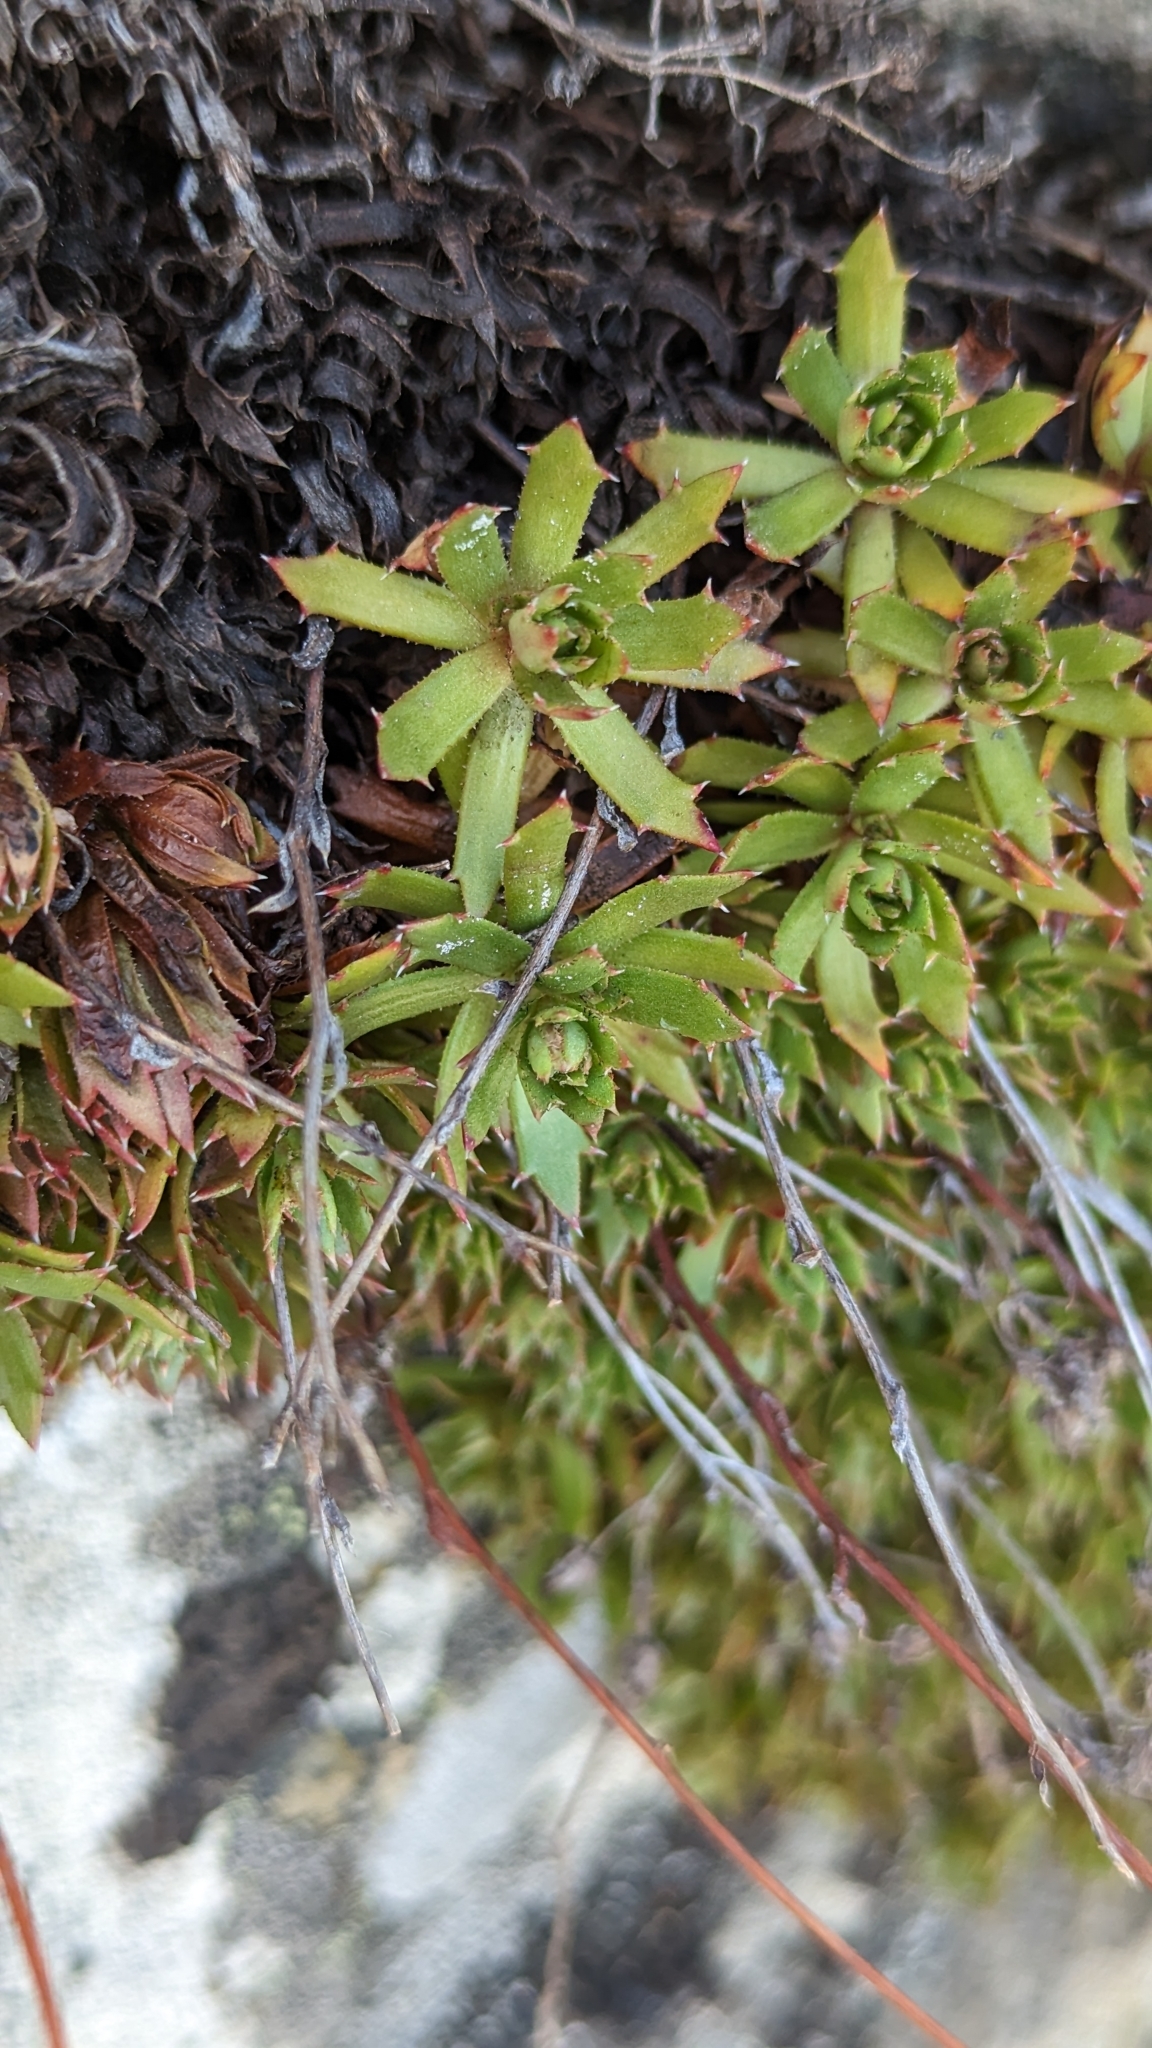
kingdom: Plantae
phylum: Tracheophyta
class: Magnoliopsida
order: Saxifragales
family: Saxifragaceae
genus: Saxifraga
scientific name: Saxifraga tricuspidata
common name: Prickly saxifrage
